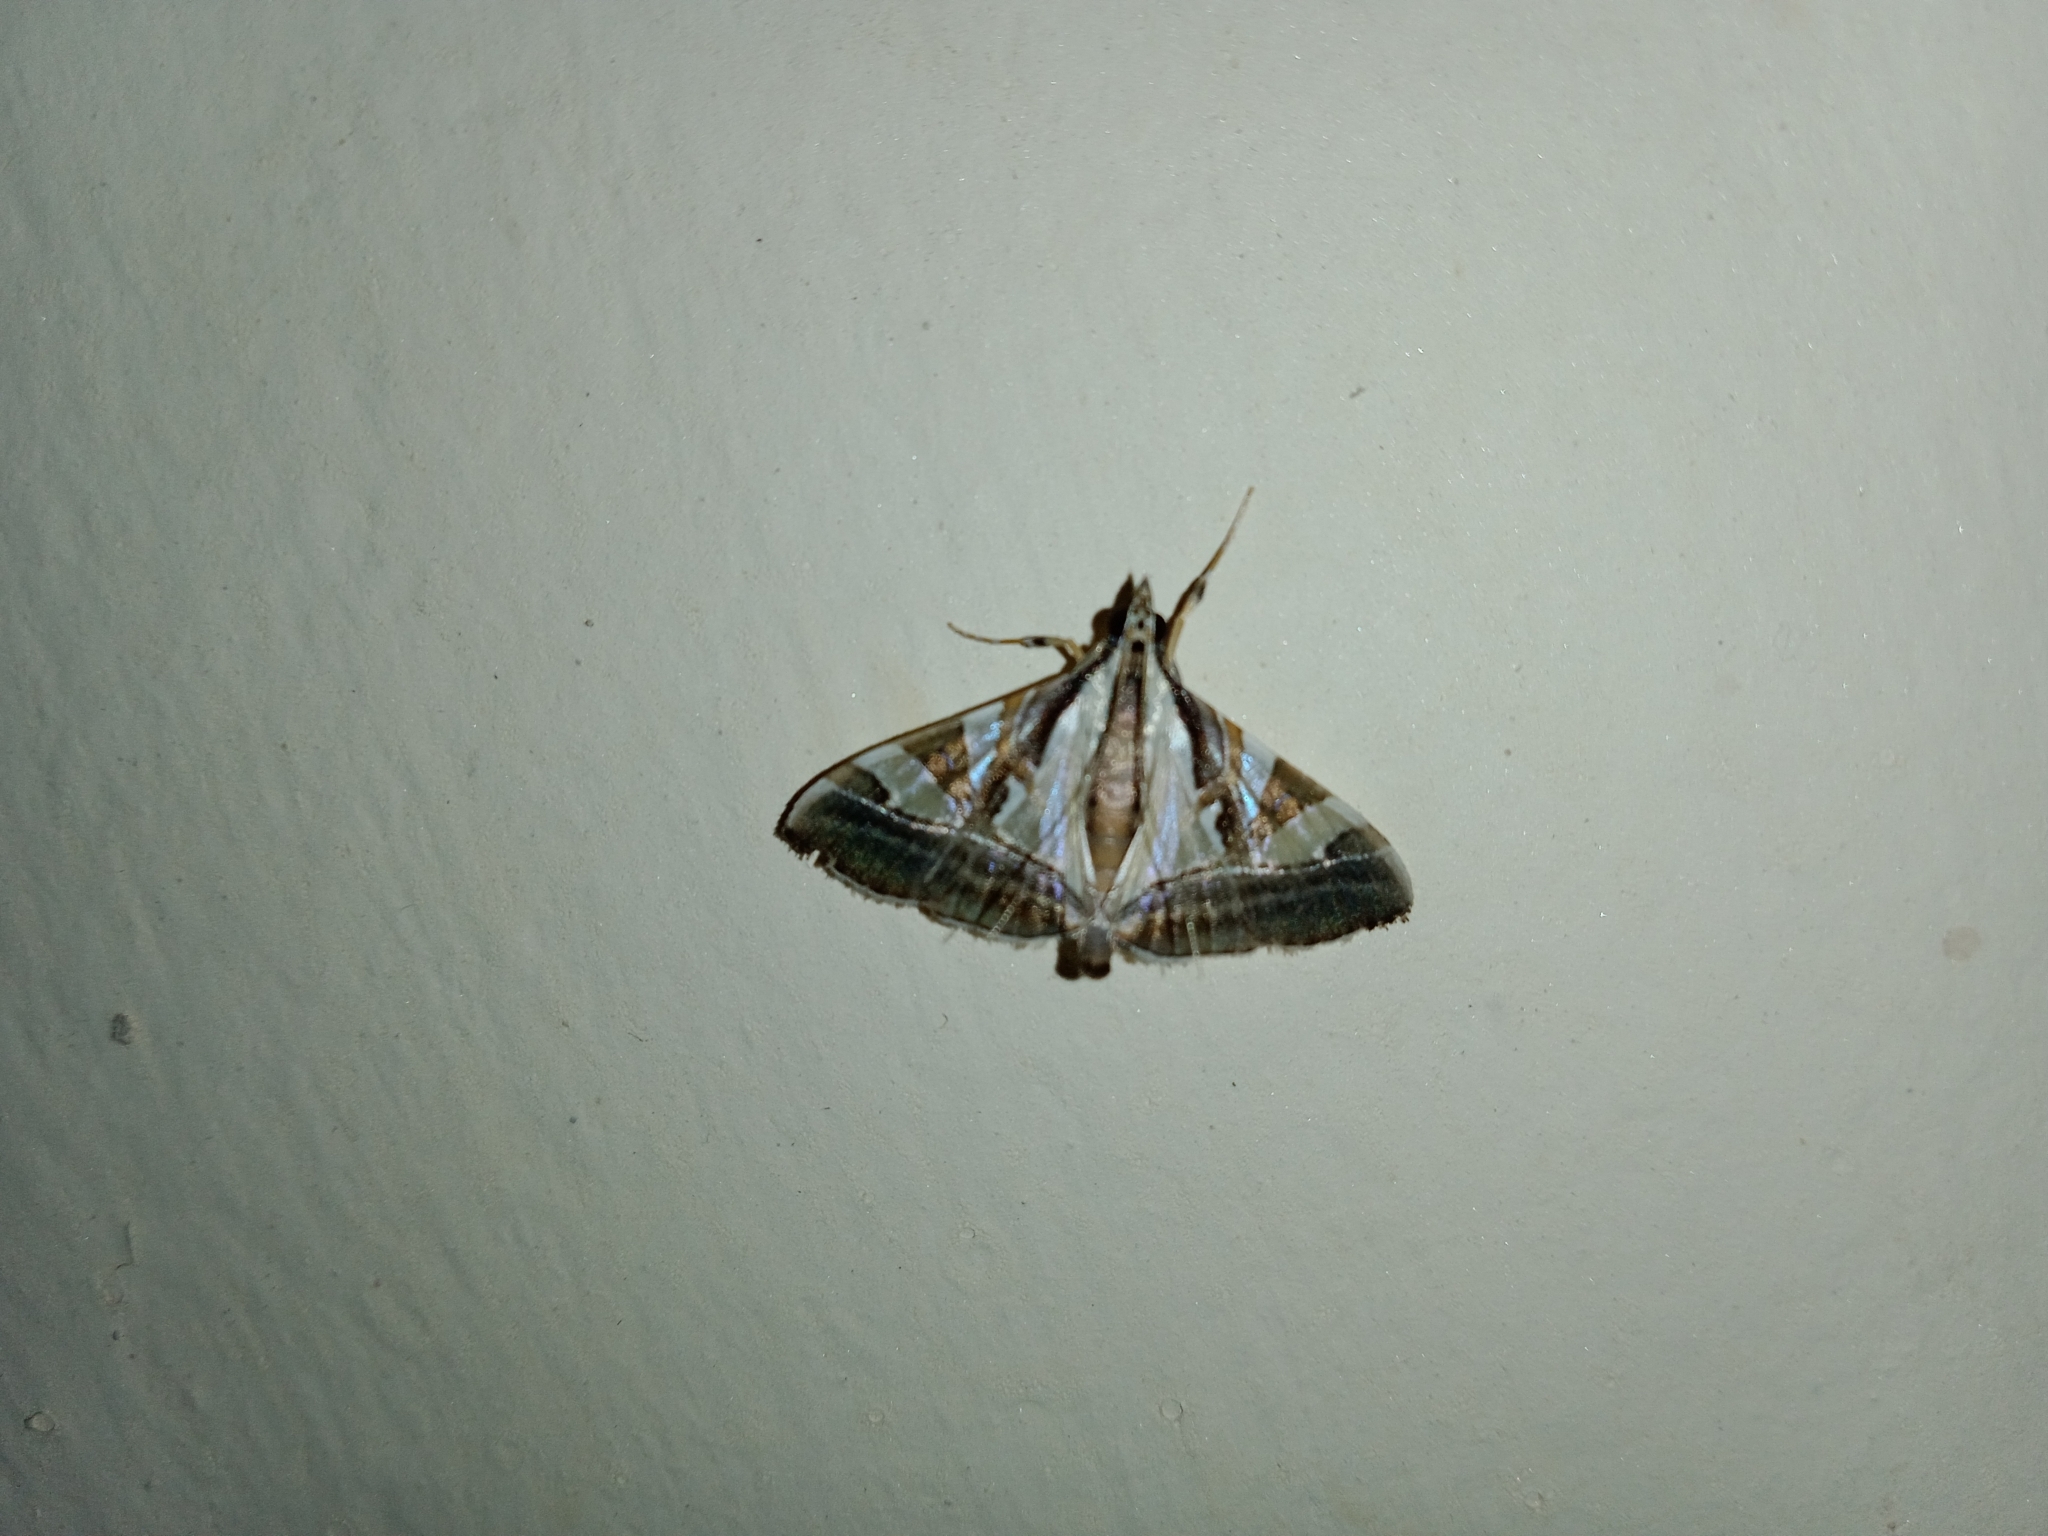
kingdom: Animalia
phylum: Arthropoda
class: Insecta
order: Lepidoptera
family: Crambidae
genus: Agrioglypta
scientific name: Agrioglypta itysalis
